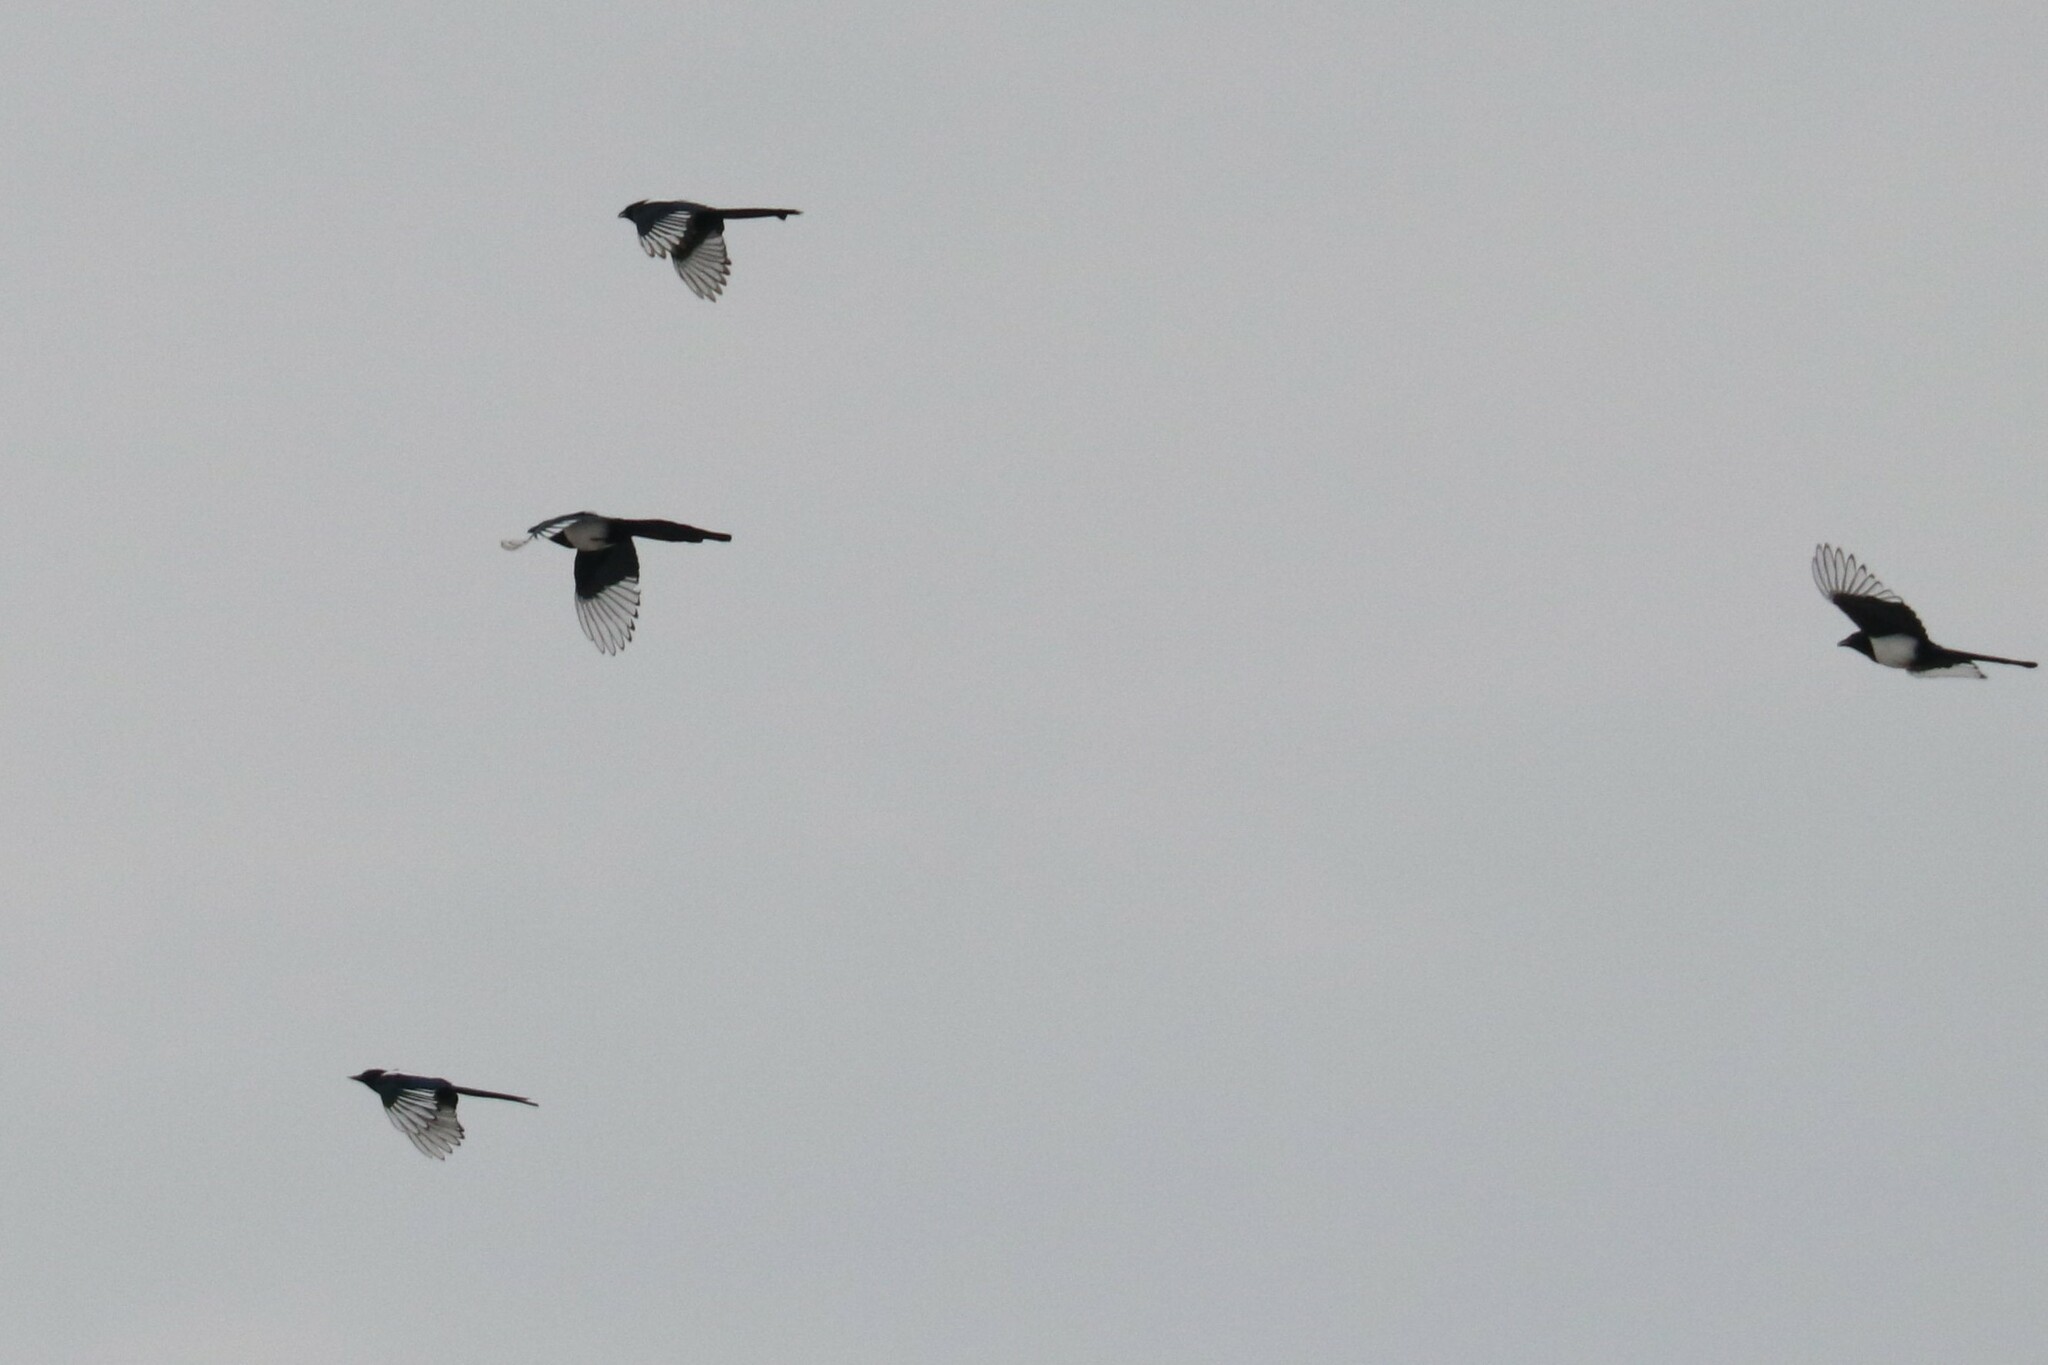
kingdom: Animalia
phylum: Chordata
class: Aves
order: Passeriformes
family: Corvidae
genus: Pica
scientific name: Pica pica
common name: Eurasian magpie
